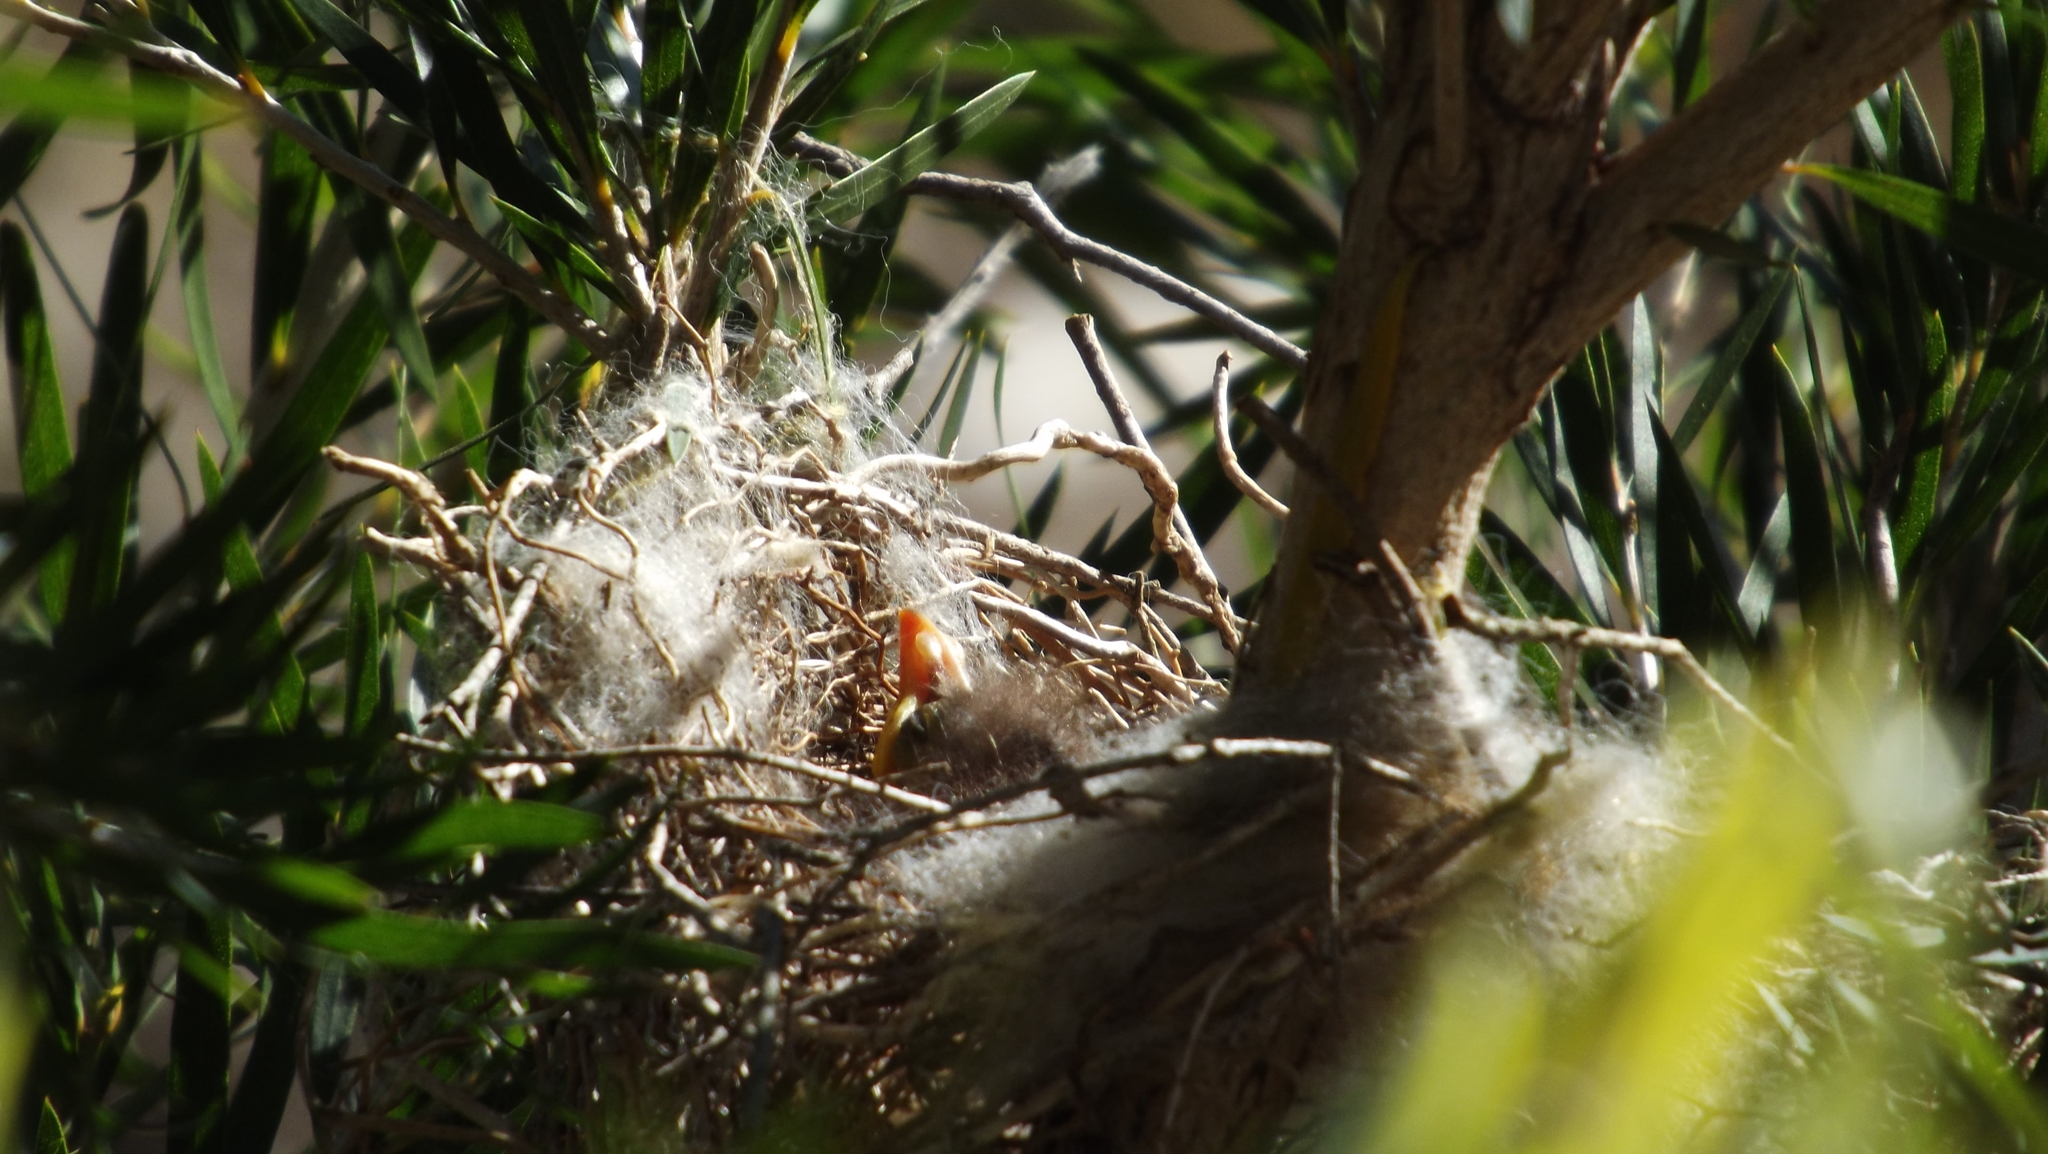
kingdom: Animalia
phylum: Chordata
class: Aves
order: Passeriformes
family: Meliphagidae
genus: Manorina
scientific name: Manorina melanocephala
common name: Noisy miner
